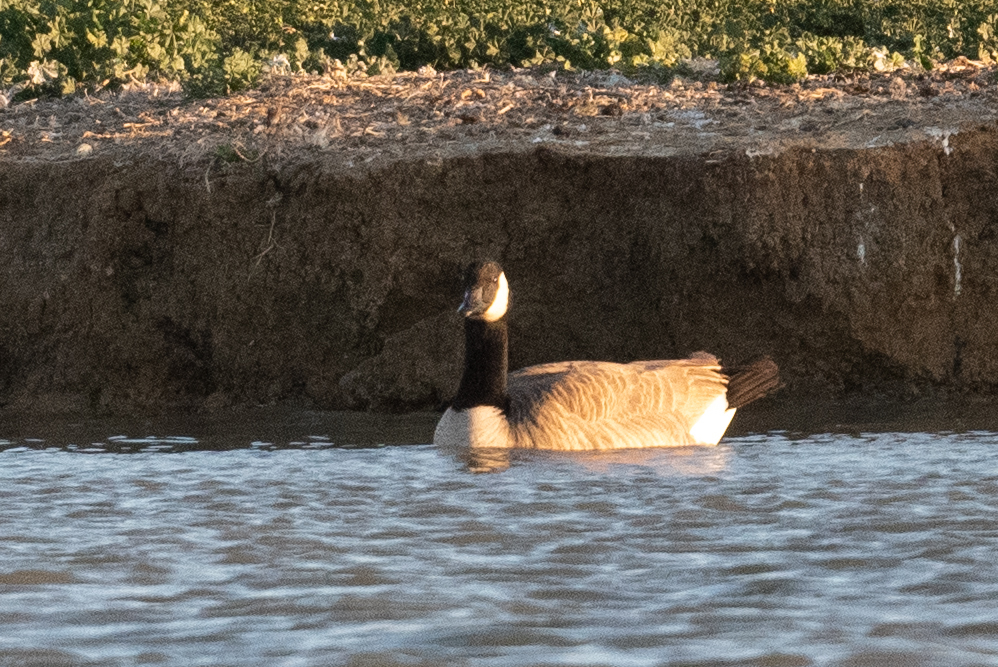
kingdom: Animalia
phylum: Chordata
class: Aves
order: Anseriformes
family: Anatidae
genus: Branta
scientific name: Branta canadensis
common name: Canada goose
